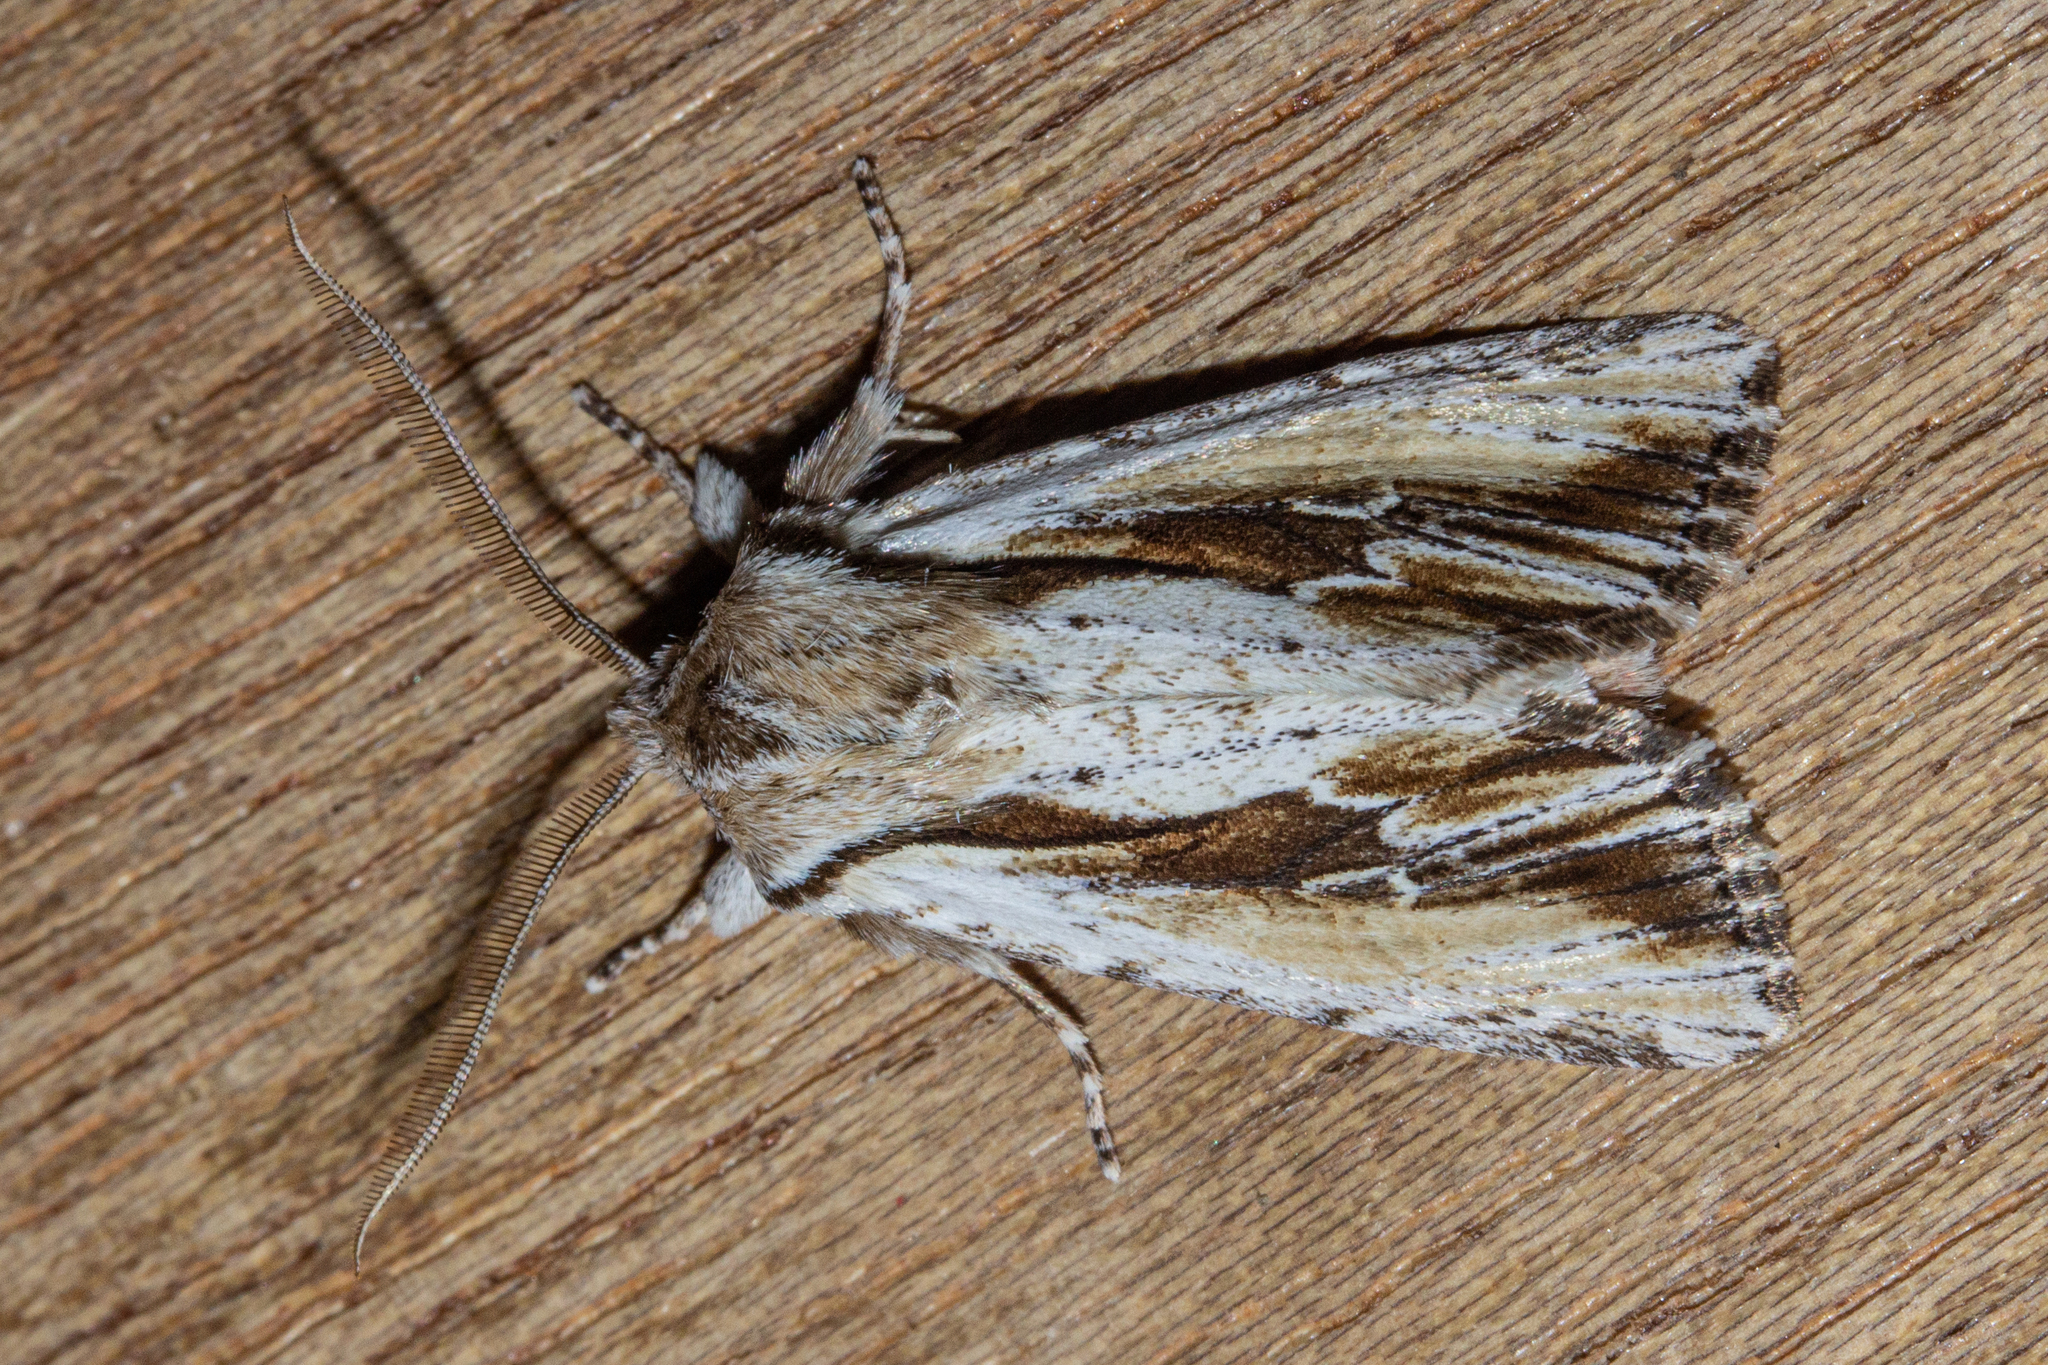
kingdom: Animalia
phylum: Arthropoda
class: Insecta
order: Lepidoptera
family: Noctuidae
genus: Ichneutica
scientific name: Ichneutica
